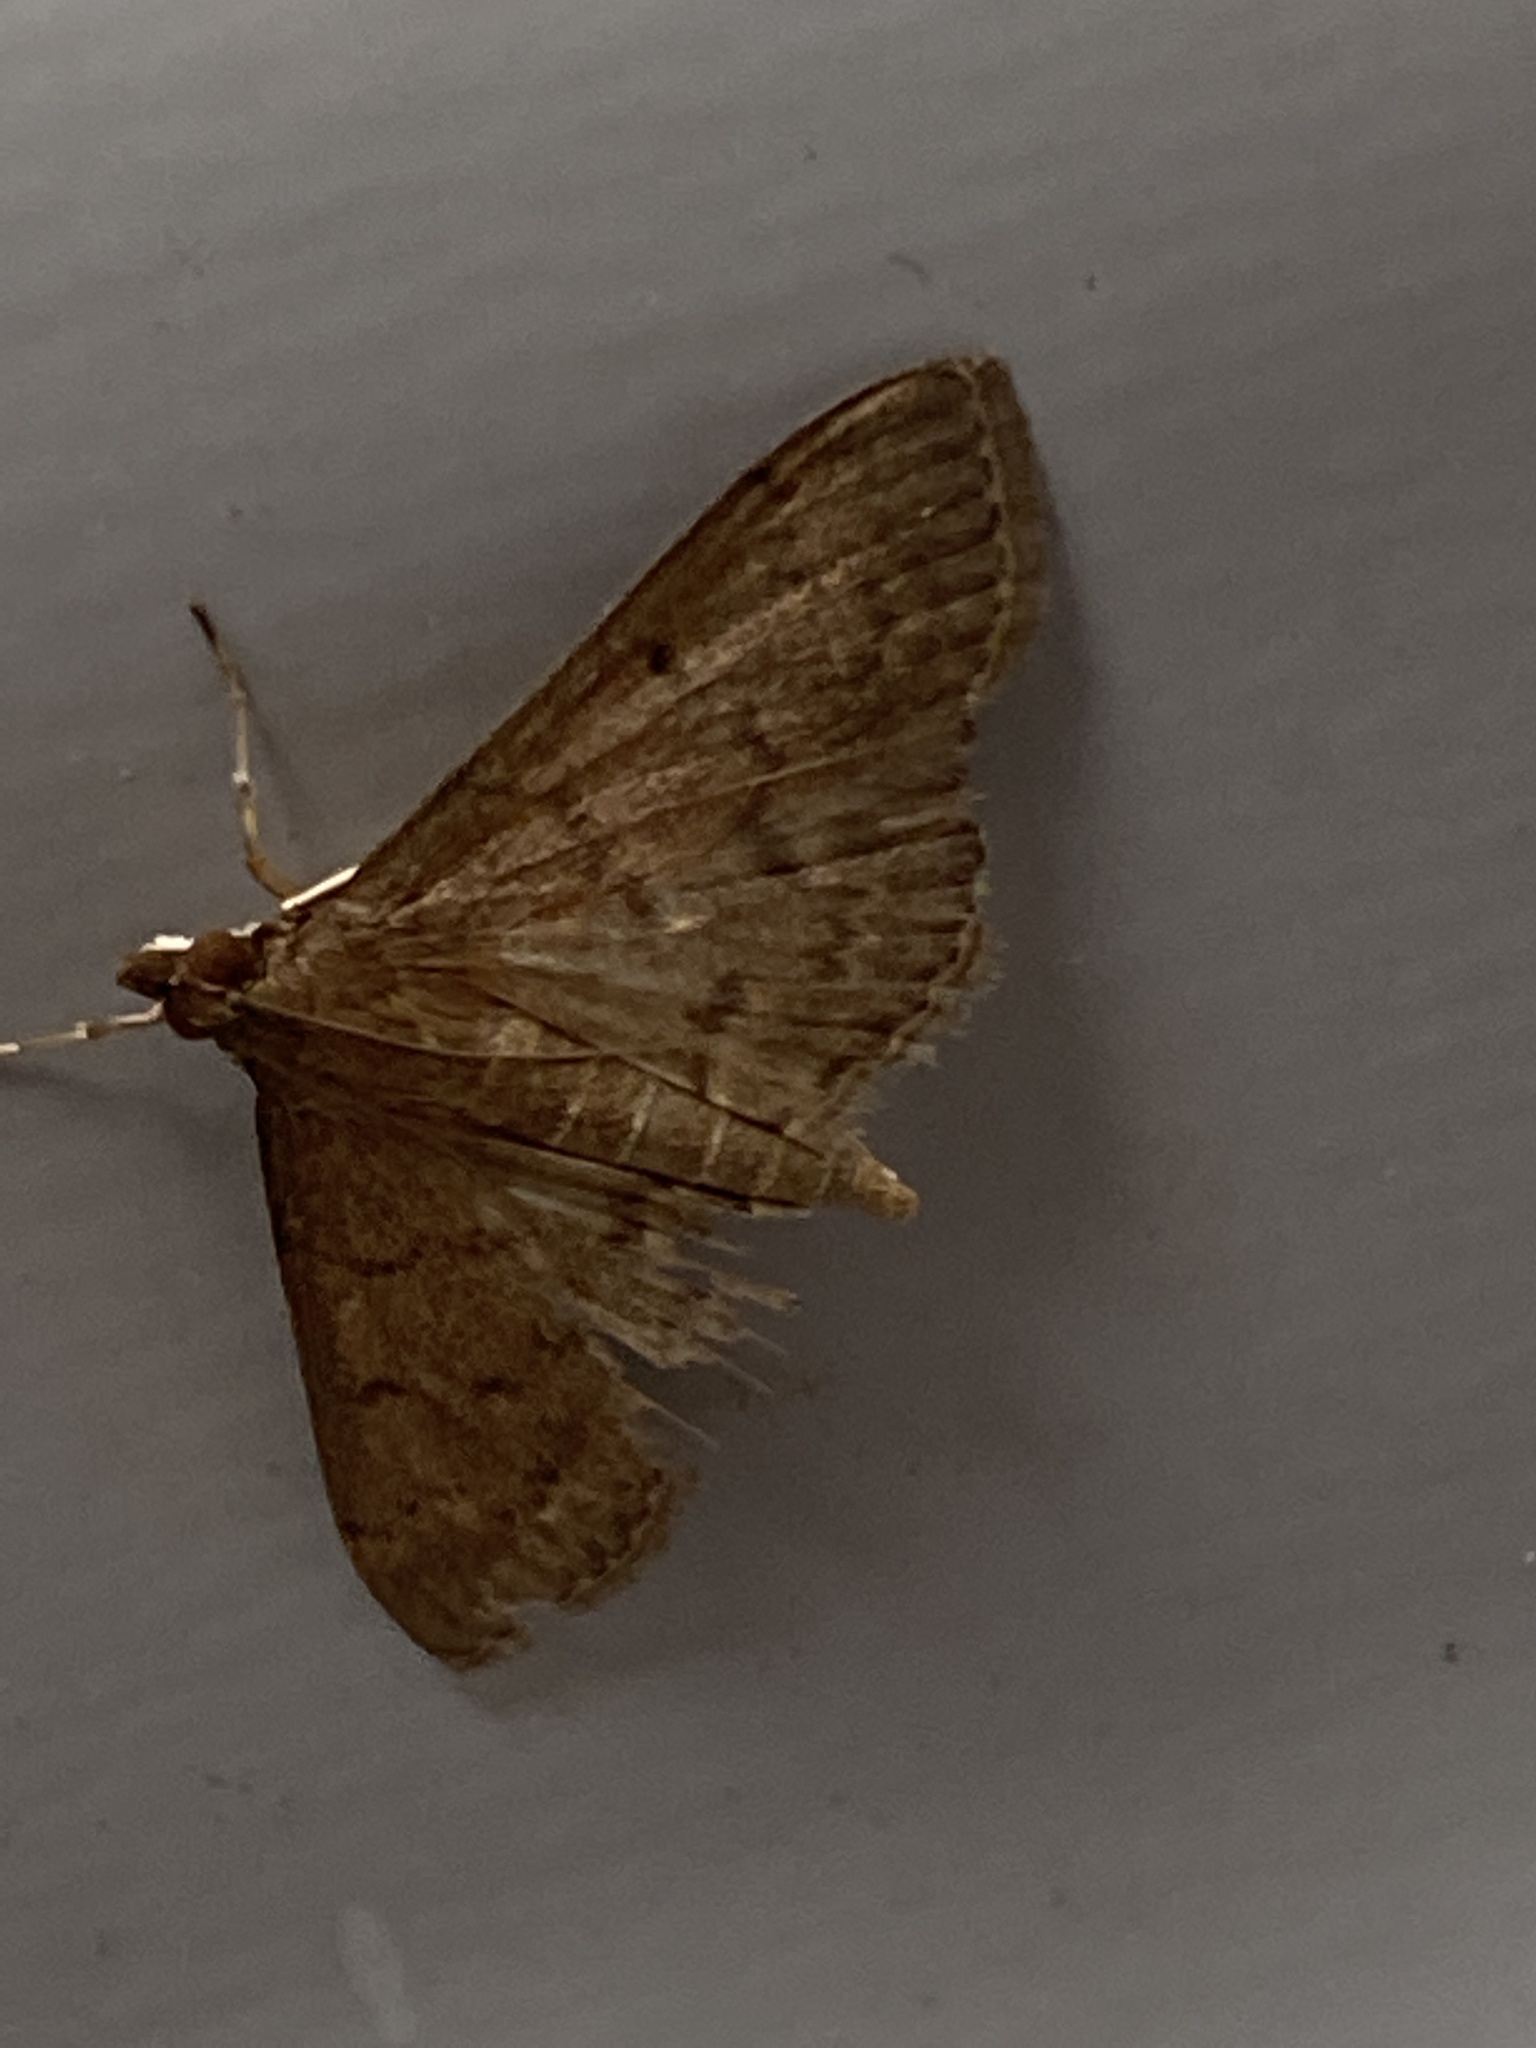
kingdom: Animalia
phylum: Arthropoda
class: Insecta
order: Lepidoptera
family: Crambidae
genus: Herpetogramma
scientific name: Herpetogramma licarsisalis
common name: Grass webworm
